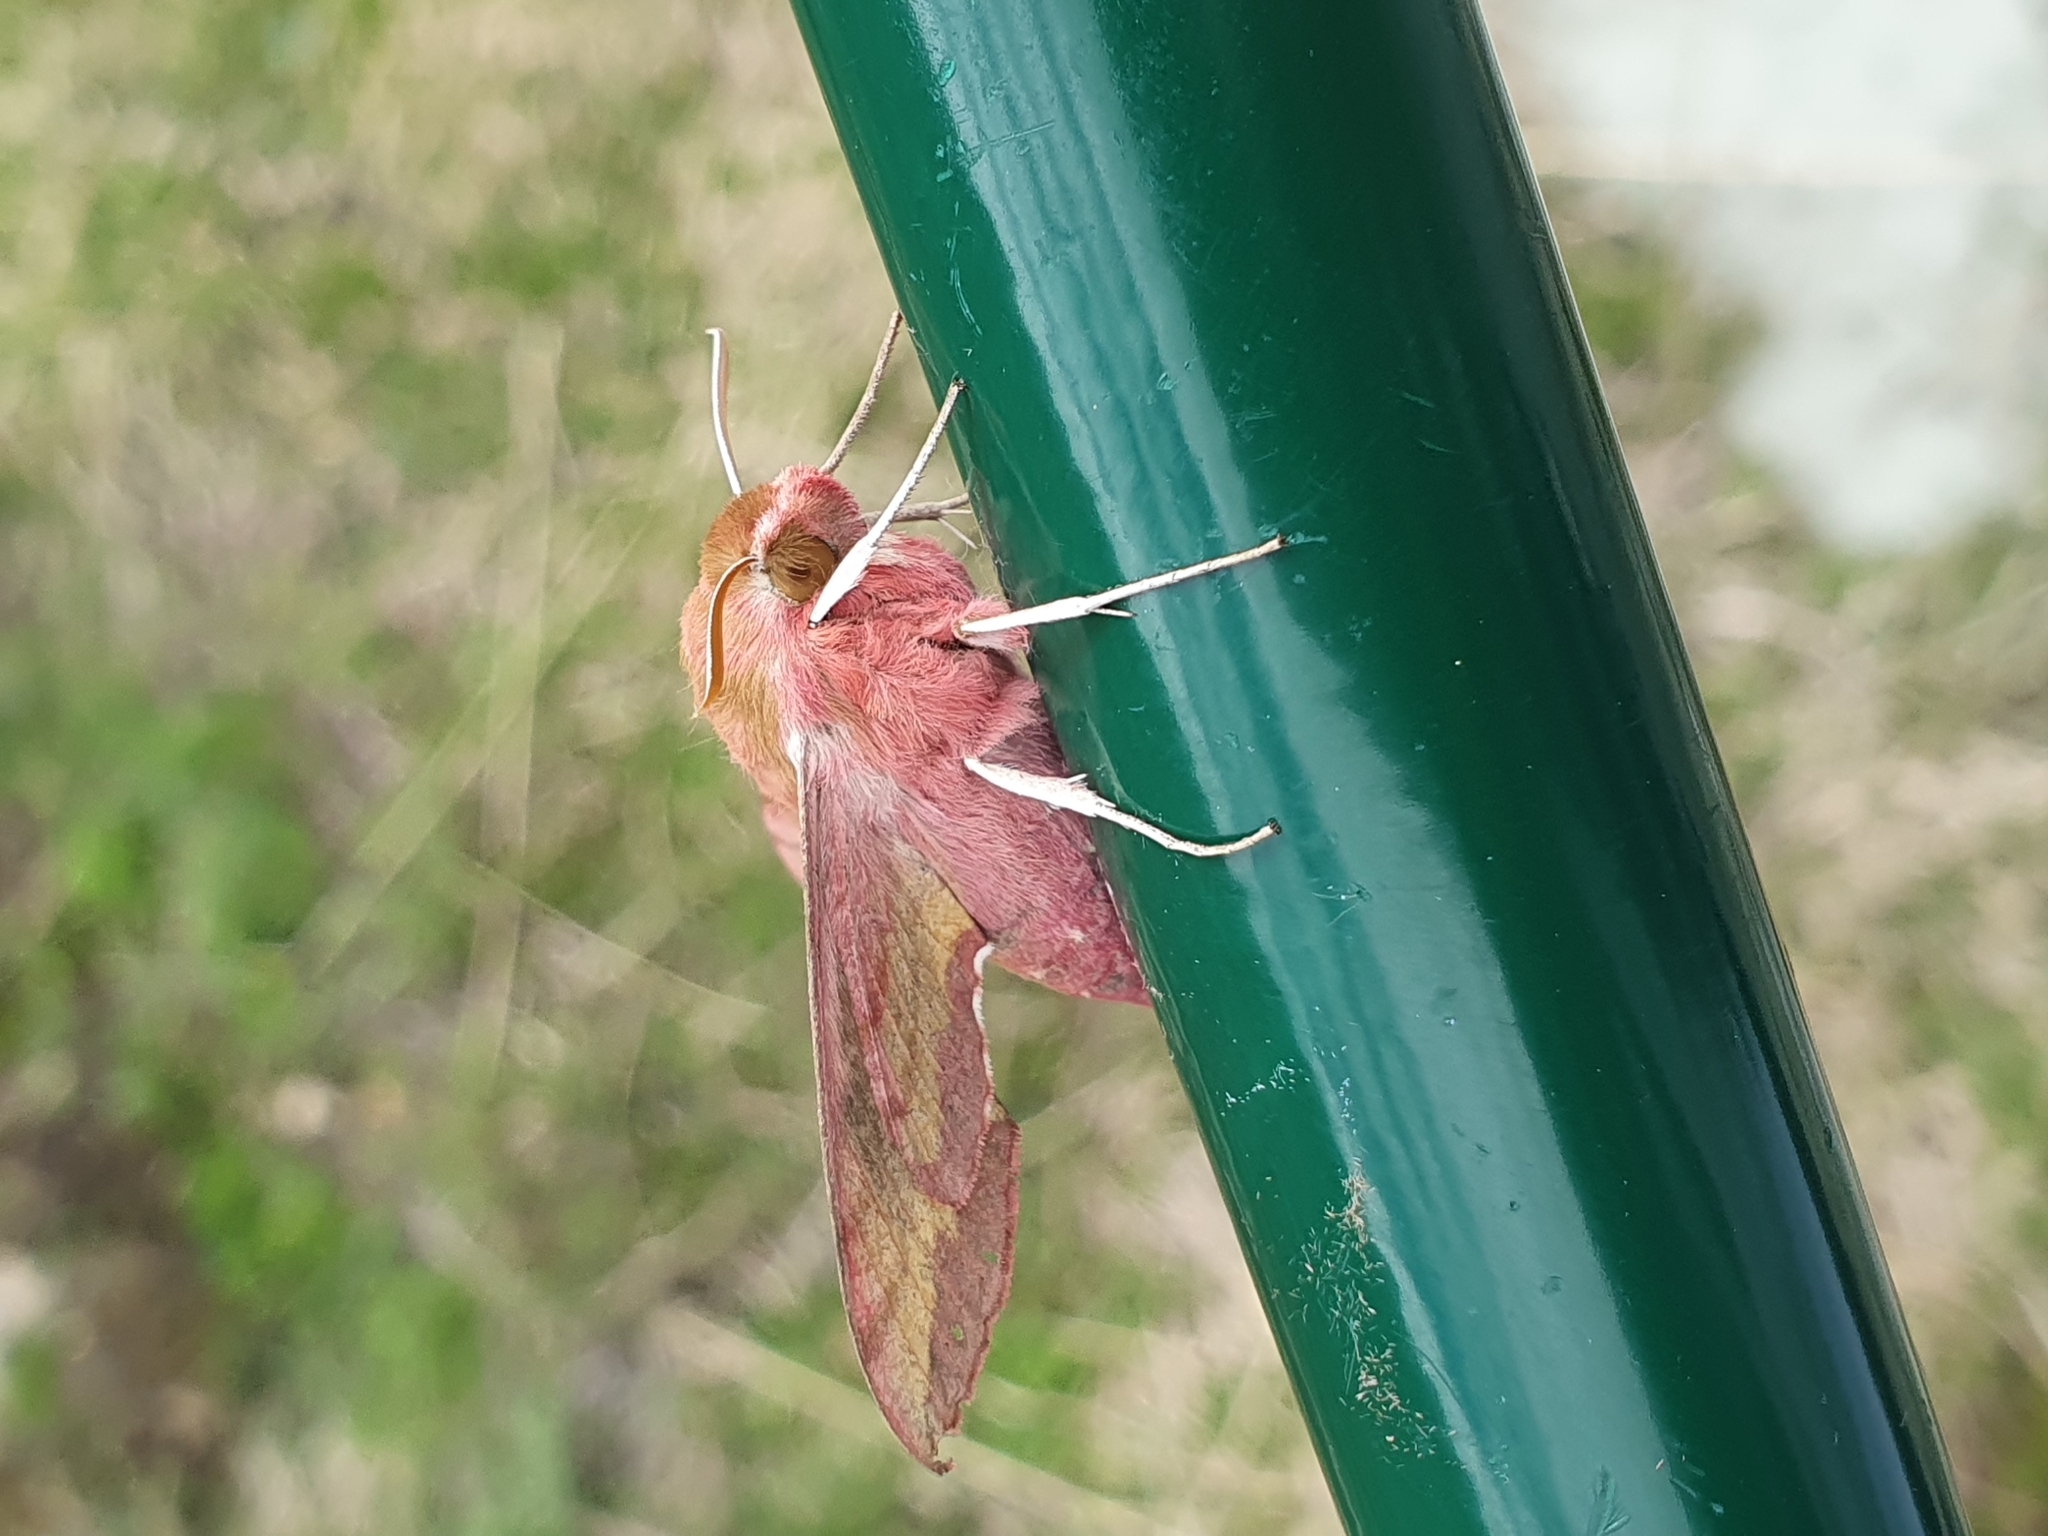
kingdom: Animalia
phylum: Arthropoda
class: Insecta
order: Lepidoptera
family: Sphingidae
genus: Deilephila
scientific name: Deilephila porcellus
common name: Small elephant hawk-moth
